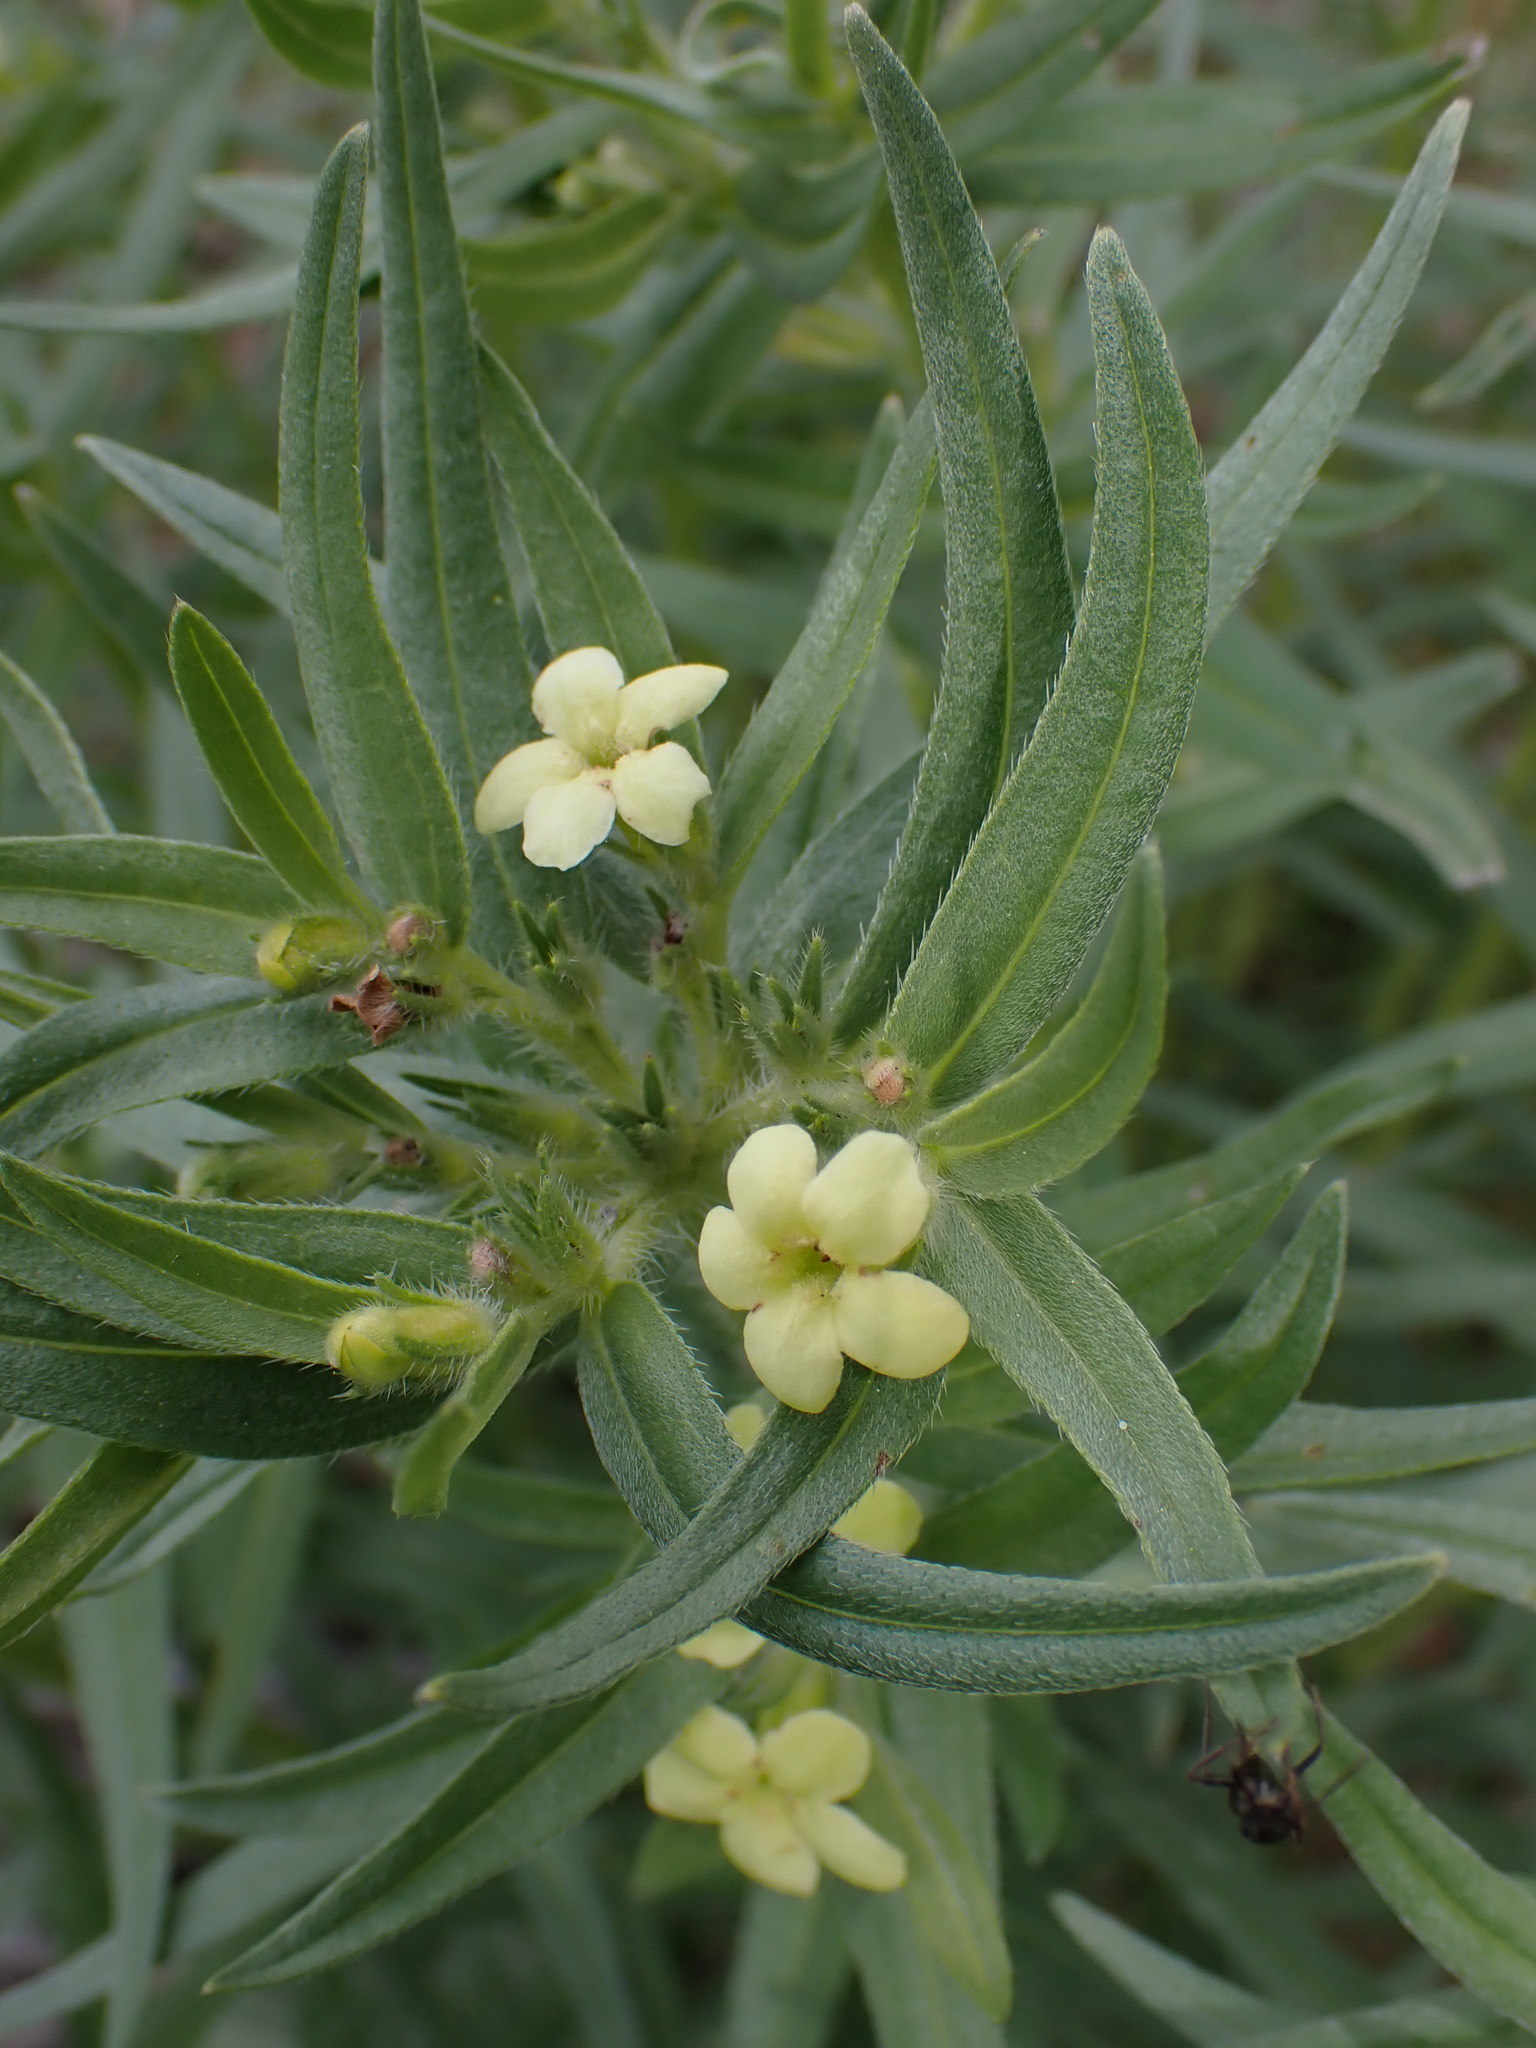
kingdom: Plantae
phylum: Tracheophyta
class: Magnoliopsida
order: Boraginales
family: Boraginaceae
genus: Lithospermum
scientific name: Lithospermum ruderale
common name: Western gromwell
